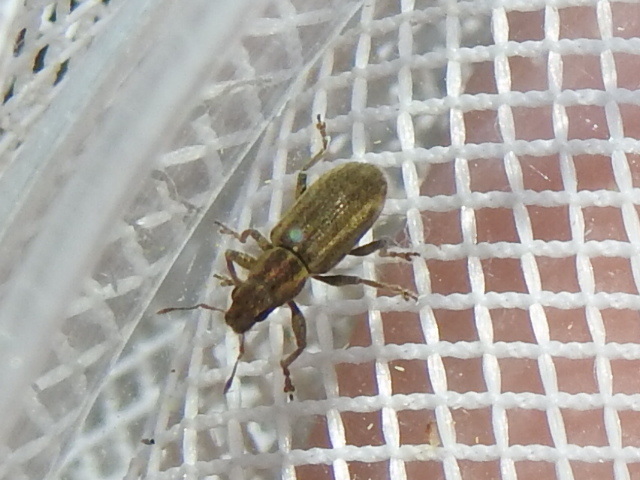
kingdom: Animalia
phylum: Arthropoda
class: Insecta
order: Coleoptera
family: Curculionidae
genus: Sitona
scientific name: Sitona lineatus
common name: Weevil
